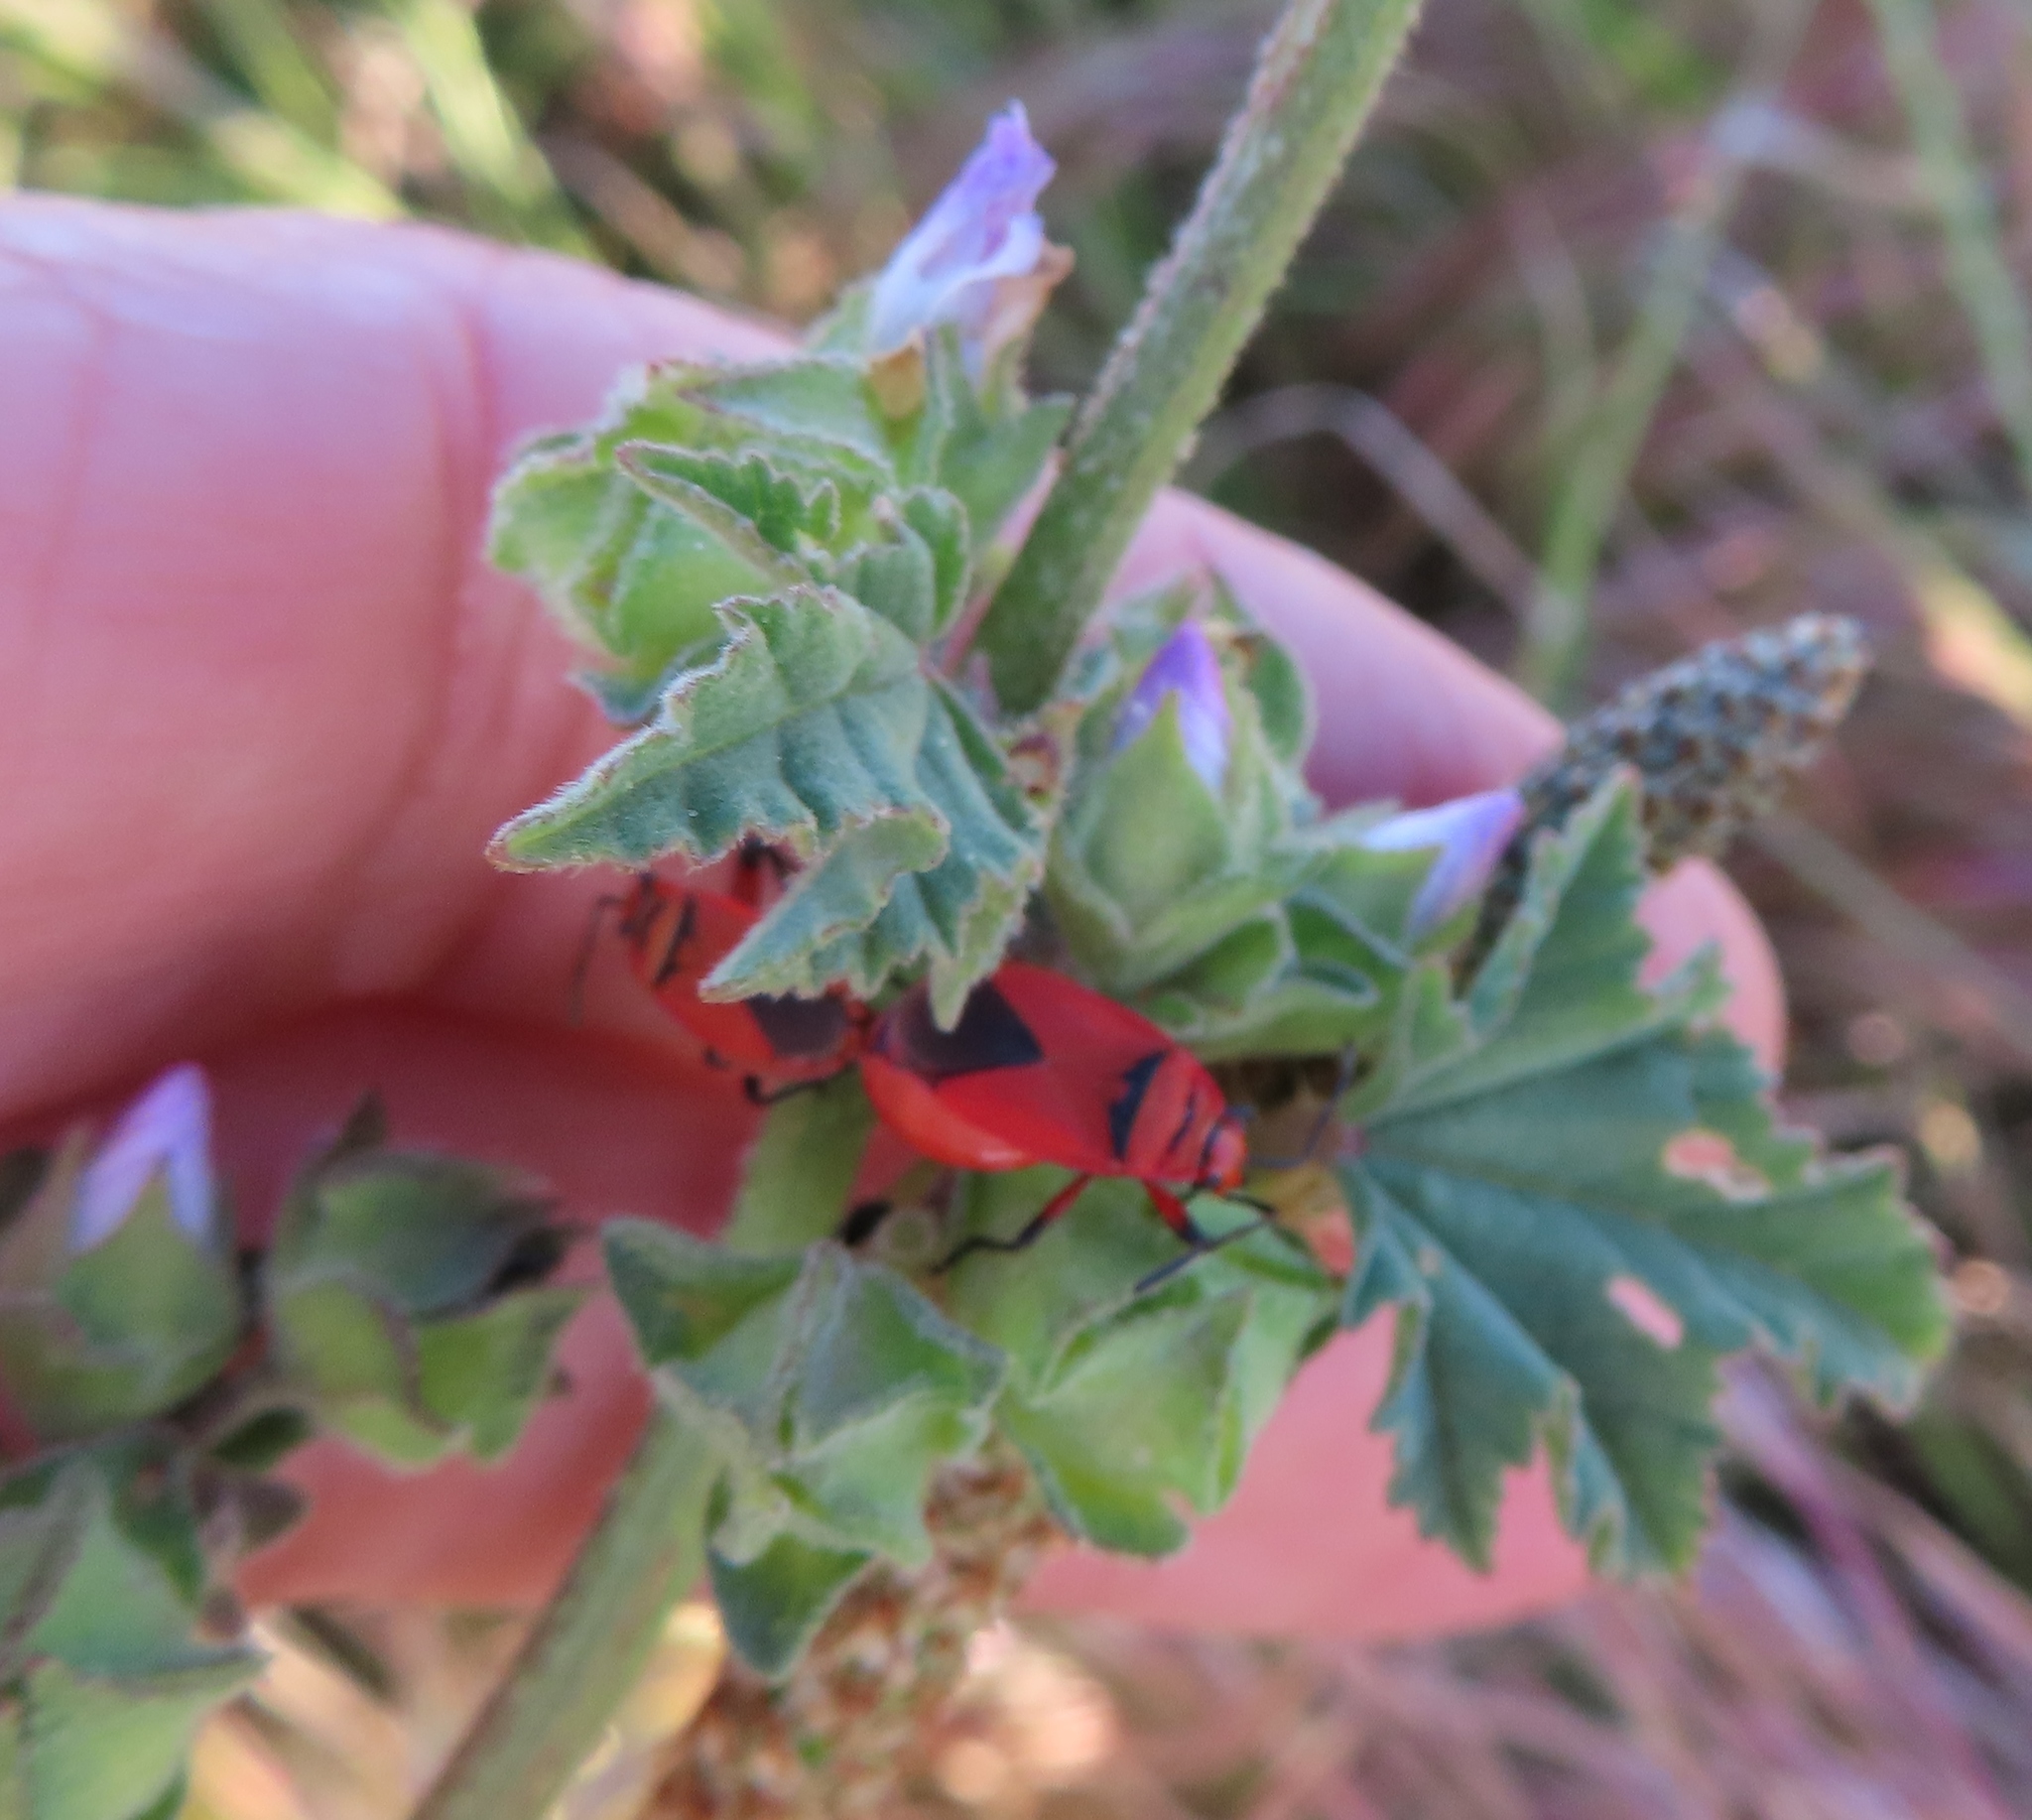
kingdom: Animalia
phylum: Arthropoda
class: Insecta
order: Hemiptera
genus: Cenaeus
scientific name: Cenaeus
